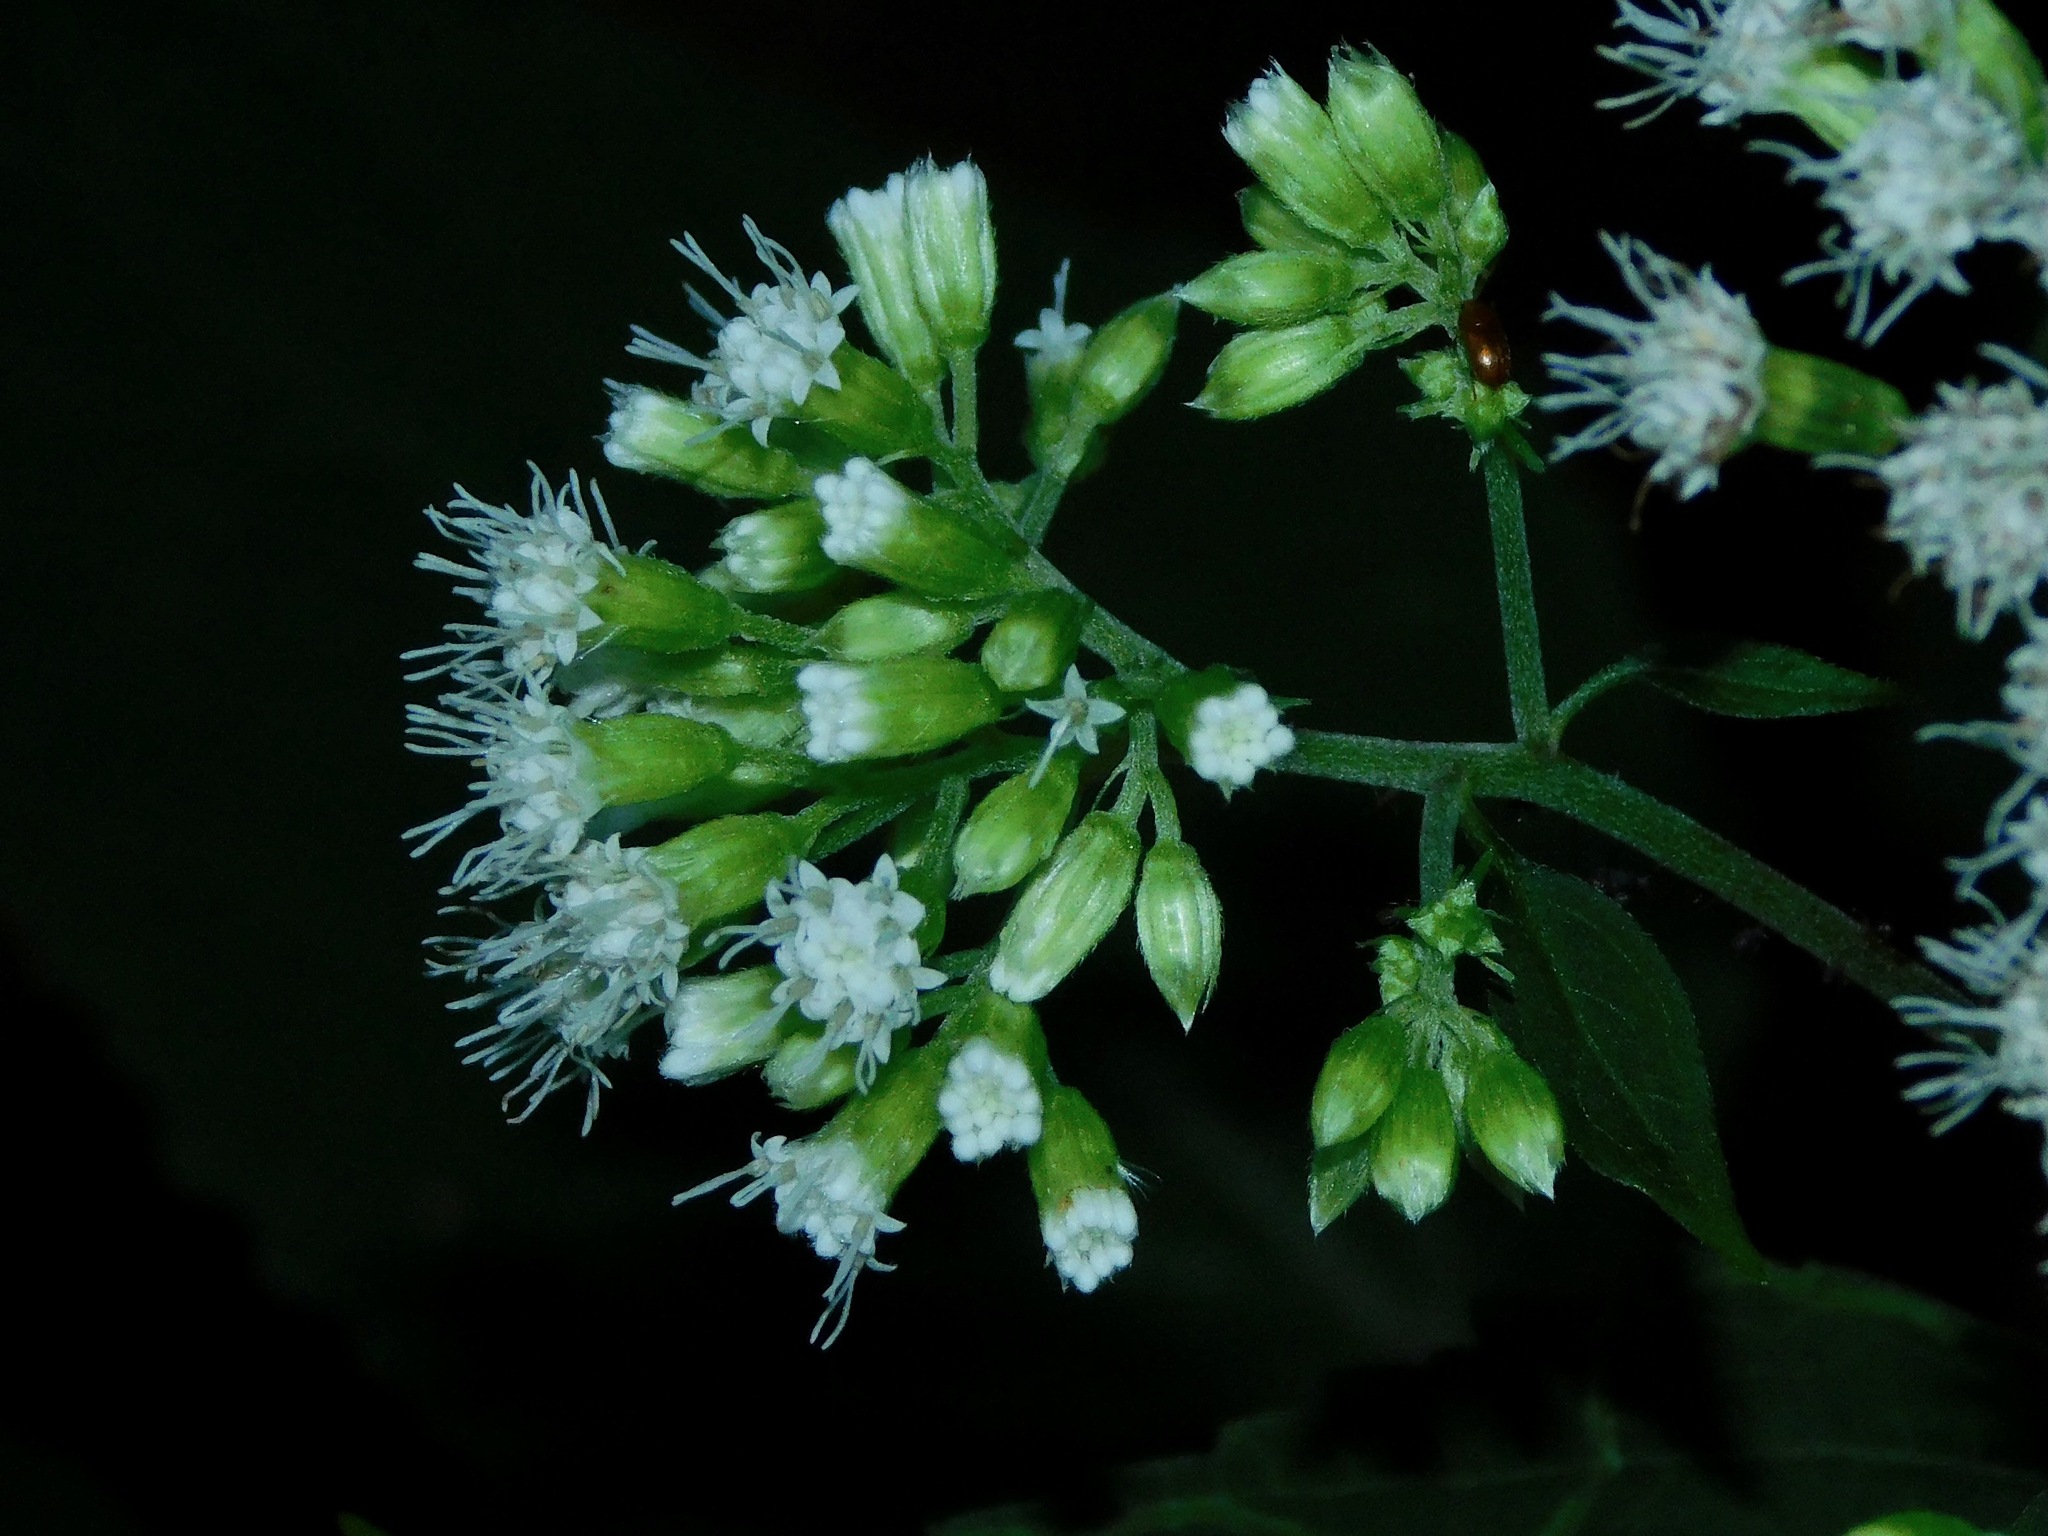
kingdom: Plantae
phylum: Tracheophyta
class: Magnoliopsida
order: Asterales
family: Asteraceae
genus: Ageratina
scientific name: Ageratina roanensis
